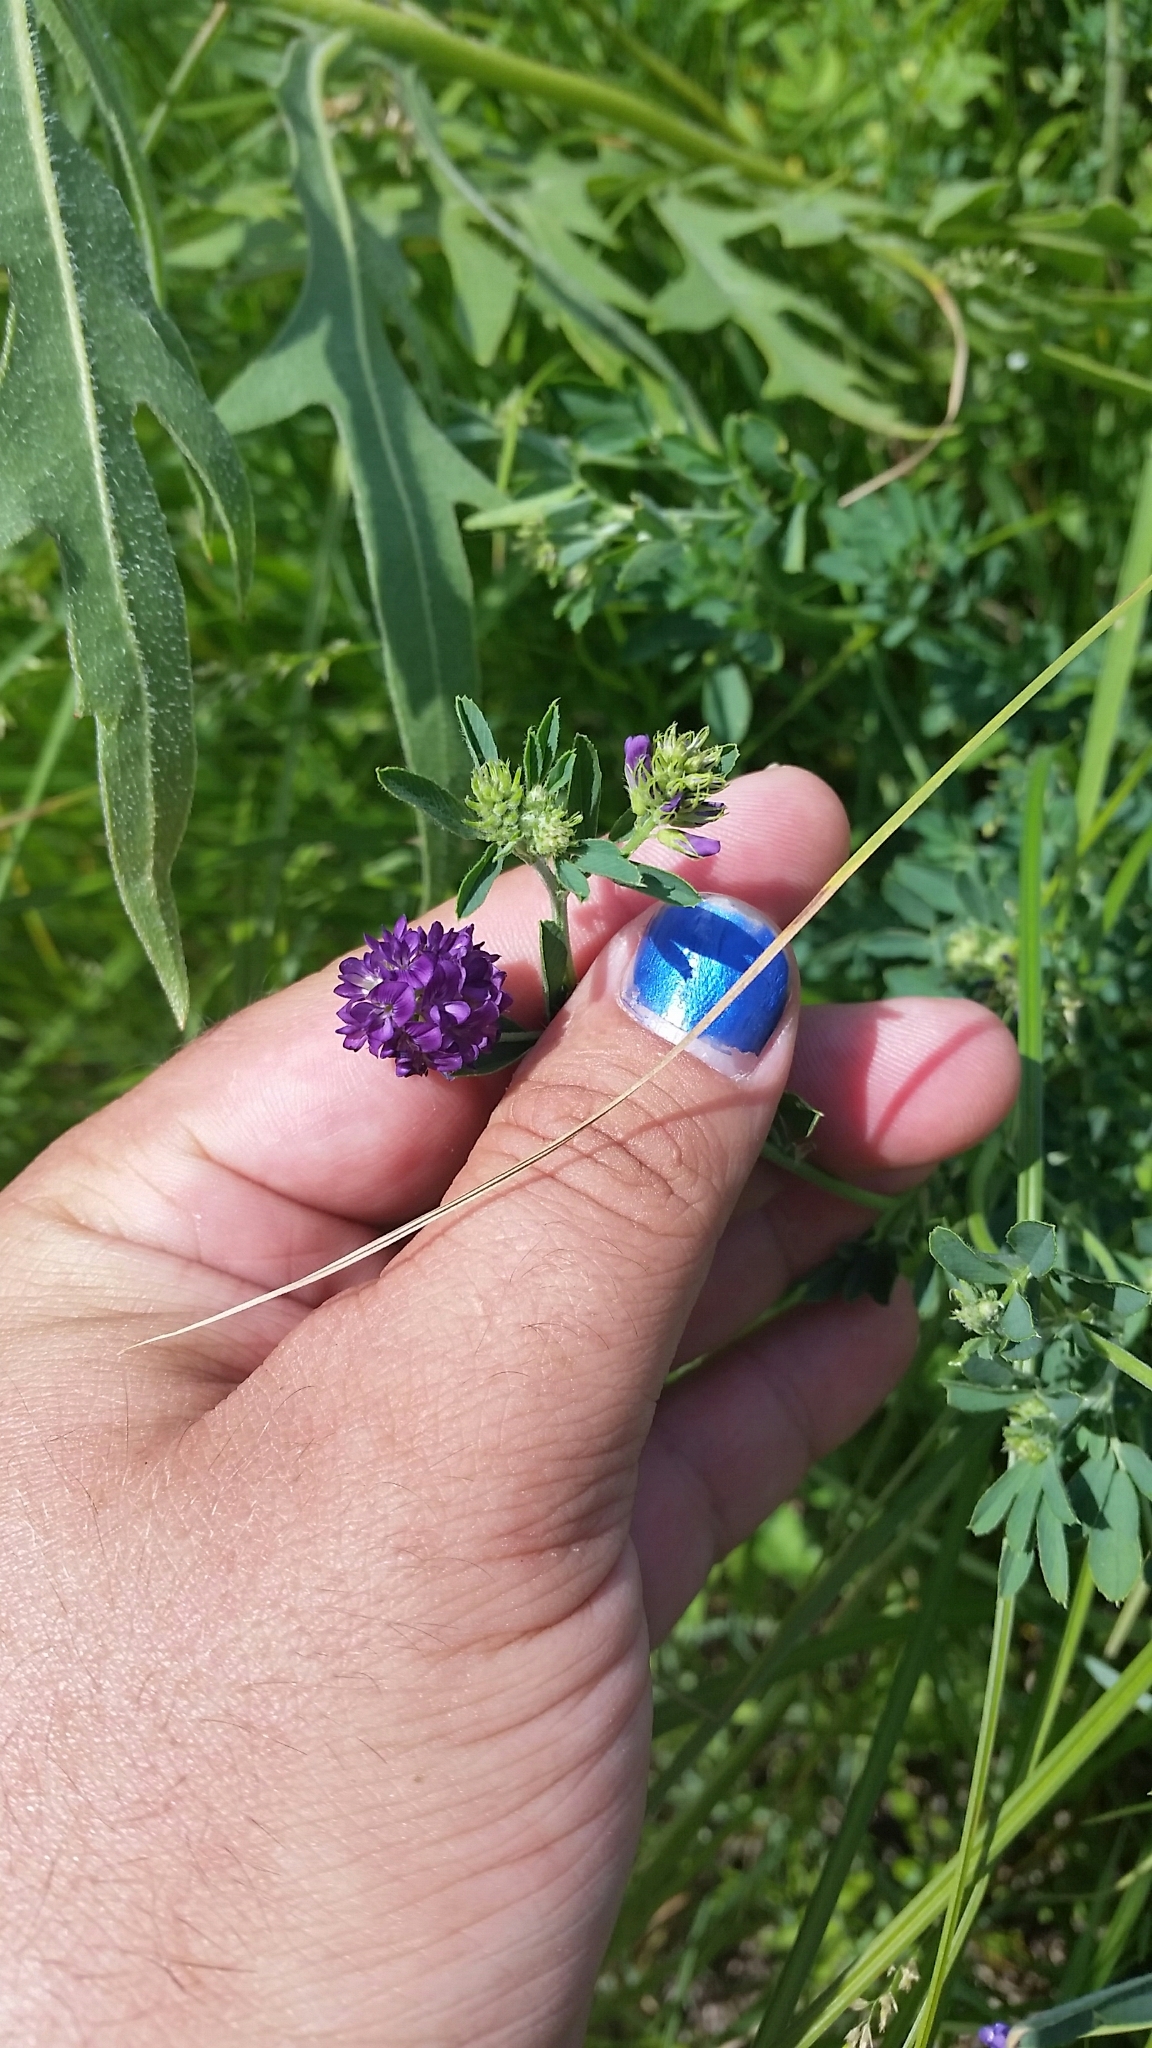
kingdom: Plantae
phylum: Tracheophyta
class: Magnoliopsida
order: Fabales
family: Fabaceae
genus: Medicago
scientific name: Medicago sativa
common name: Alfalfa
